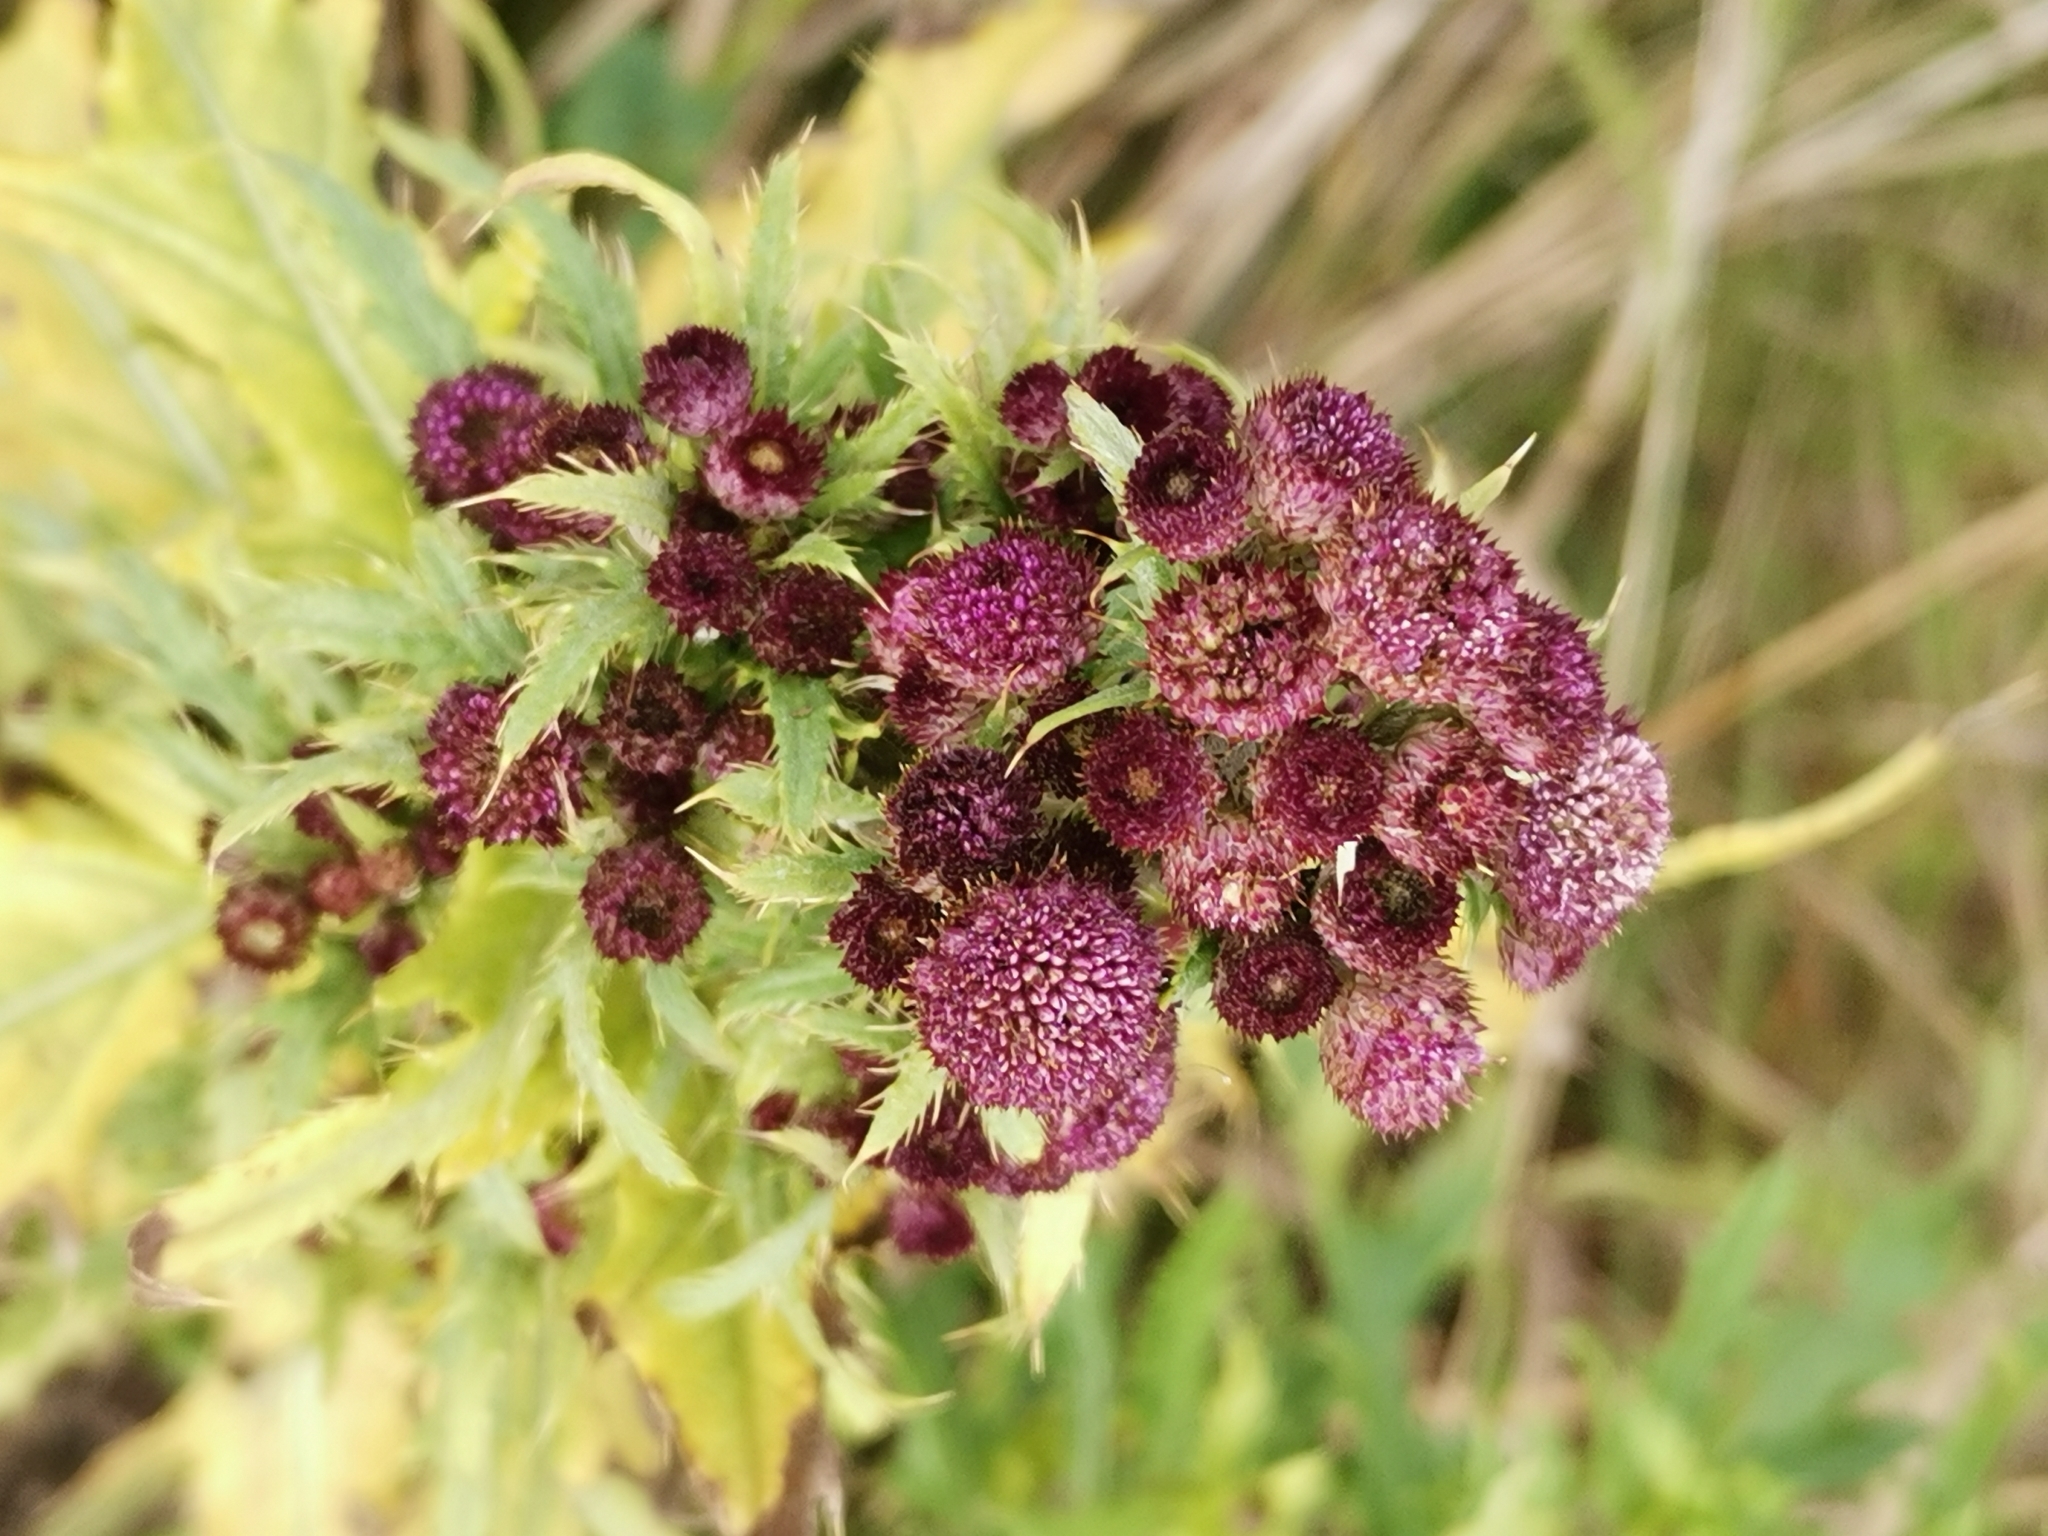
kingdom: Plantae
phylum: Tracheophyta
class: Magnoliopsida
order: Asterales
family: Asteraceae
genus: Cirsium
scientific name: Cirsium arvense
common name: Creeping thistle
